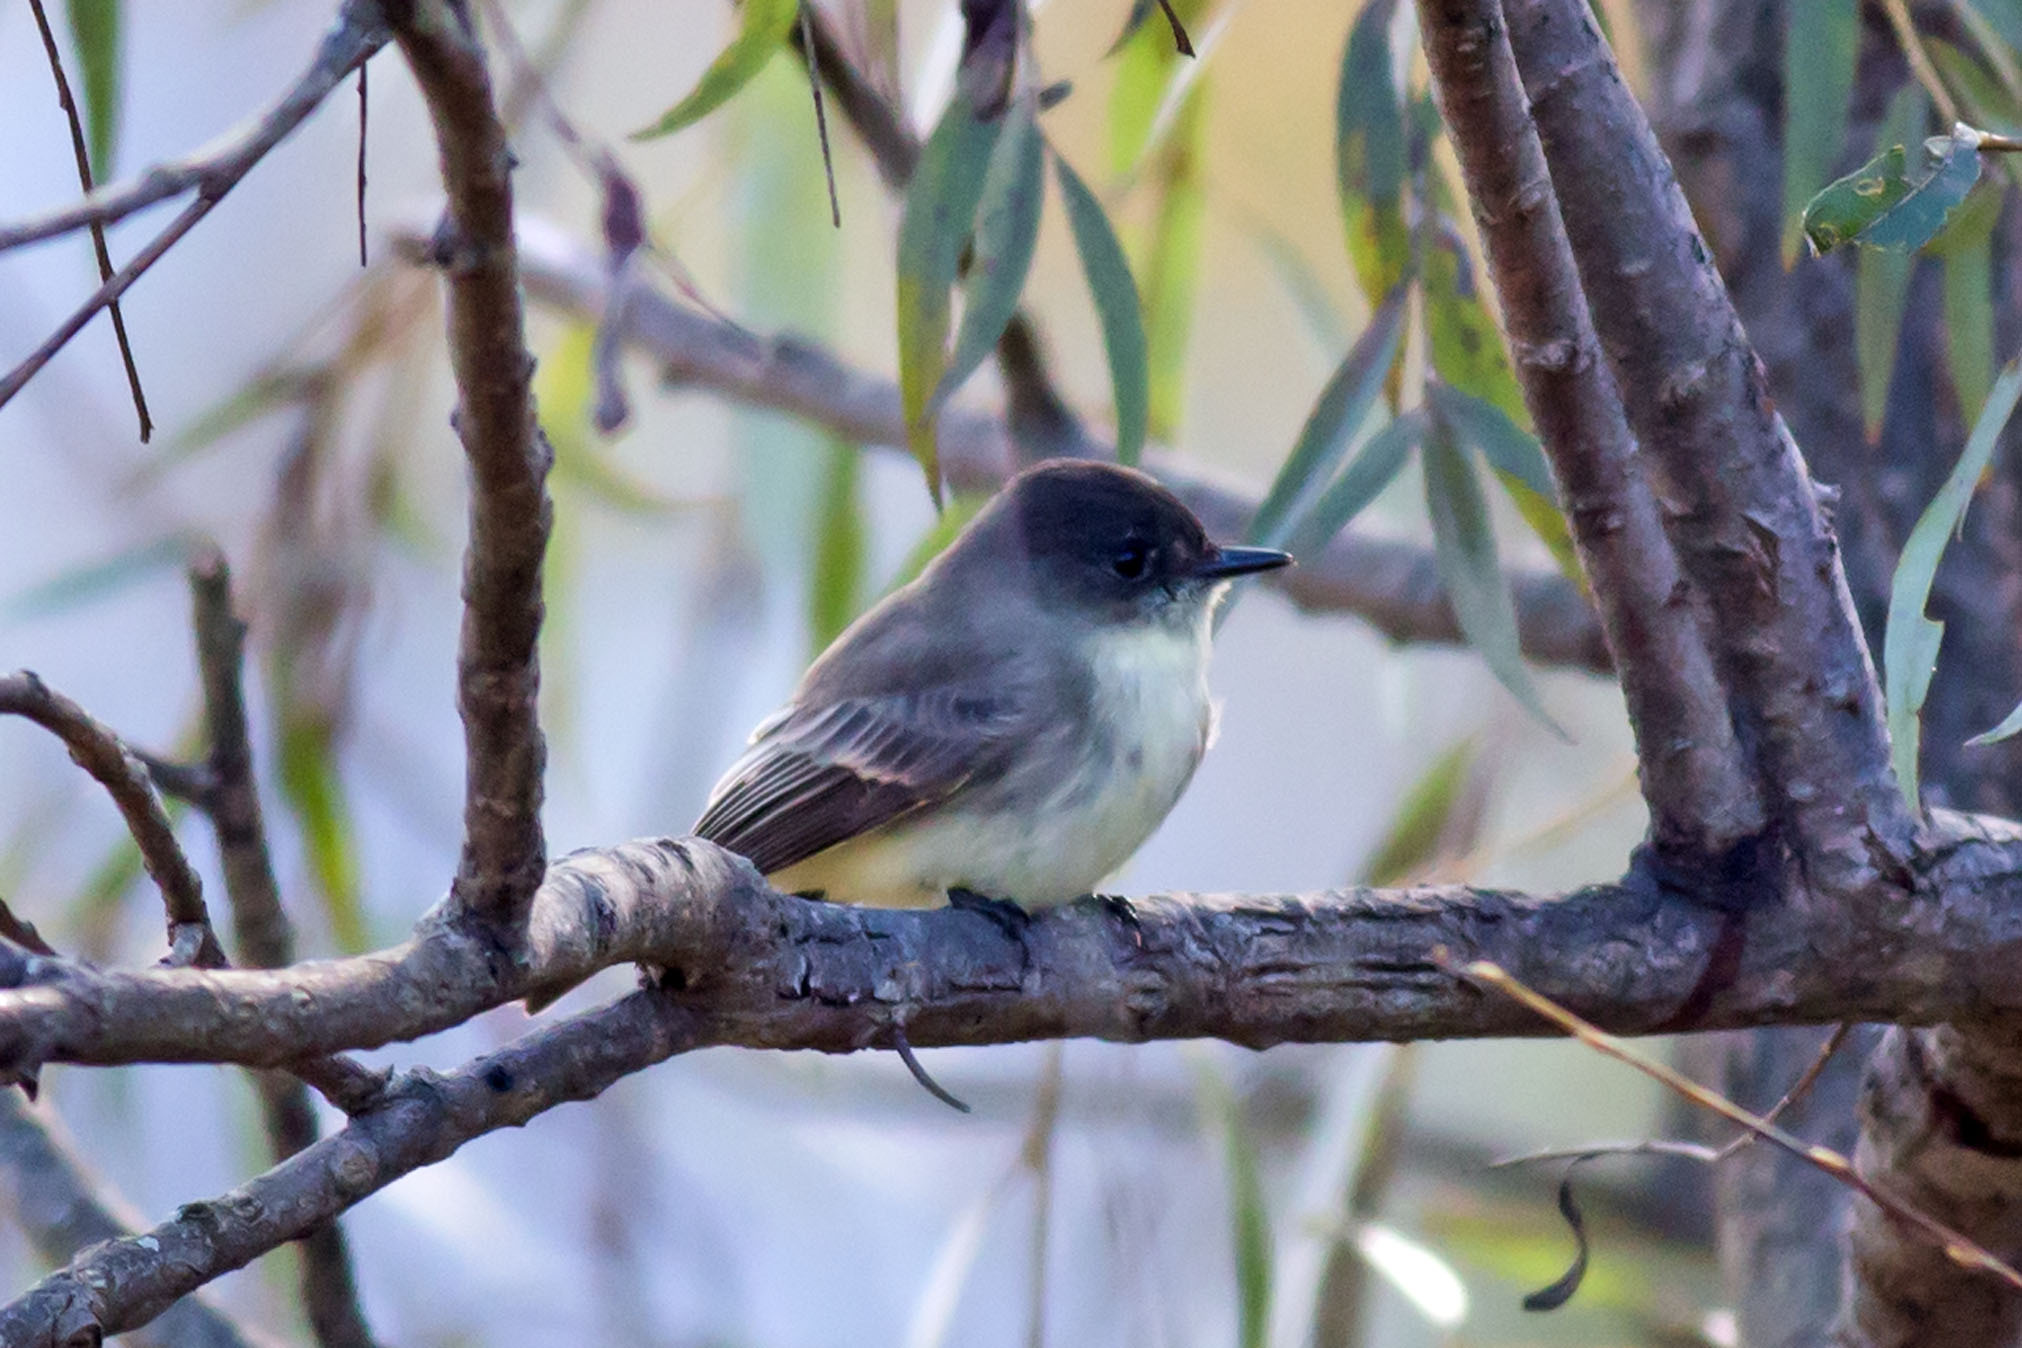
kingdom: Animalia
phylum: Chordata
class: Aves
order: Passeriformes
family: Tyrannidae
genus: Sayornis
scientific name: Sayornis phoebe
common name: Eastern phoebe
